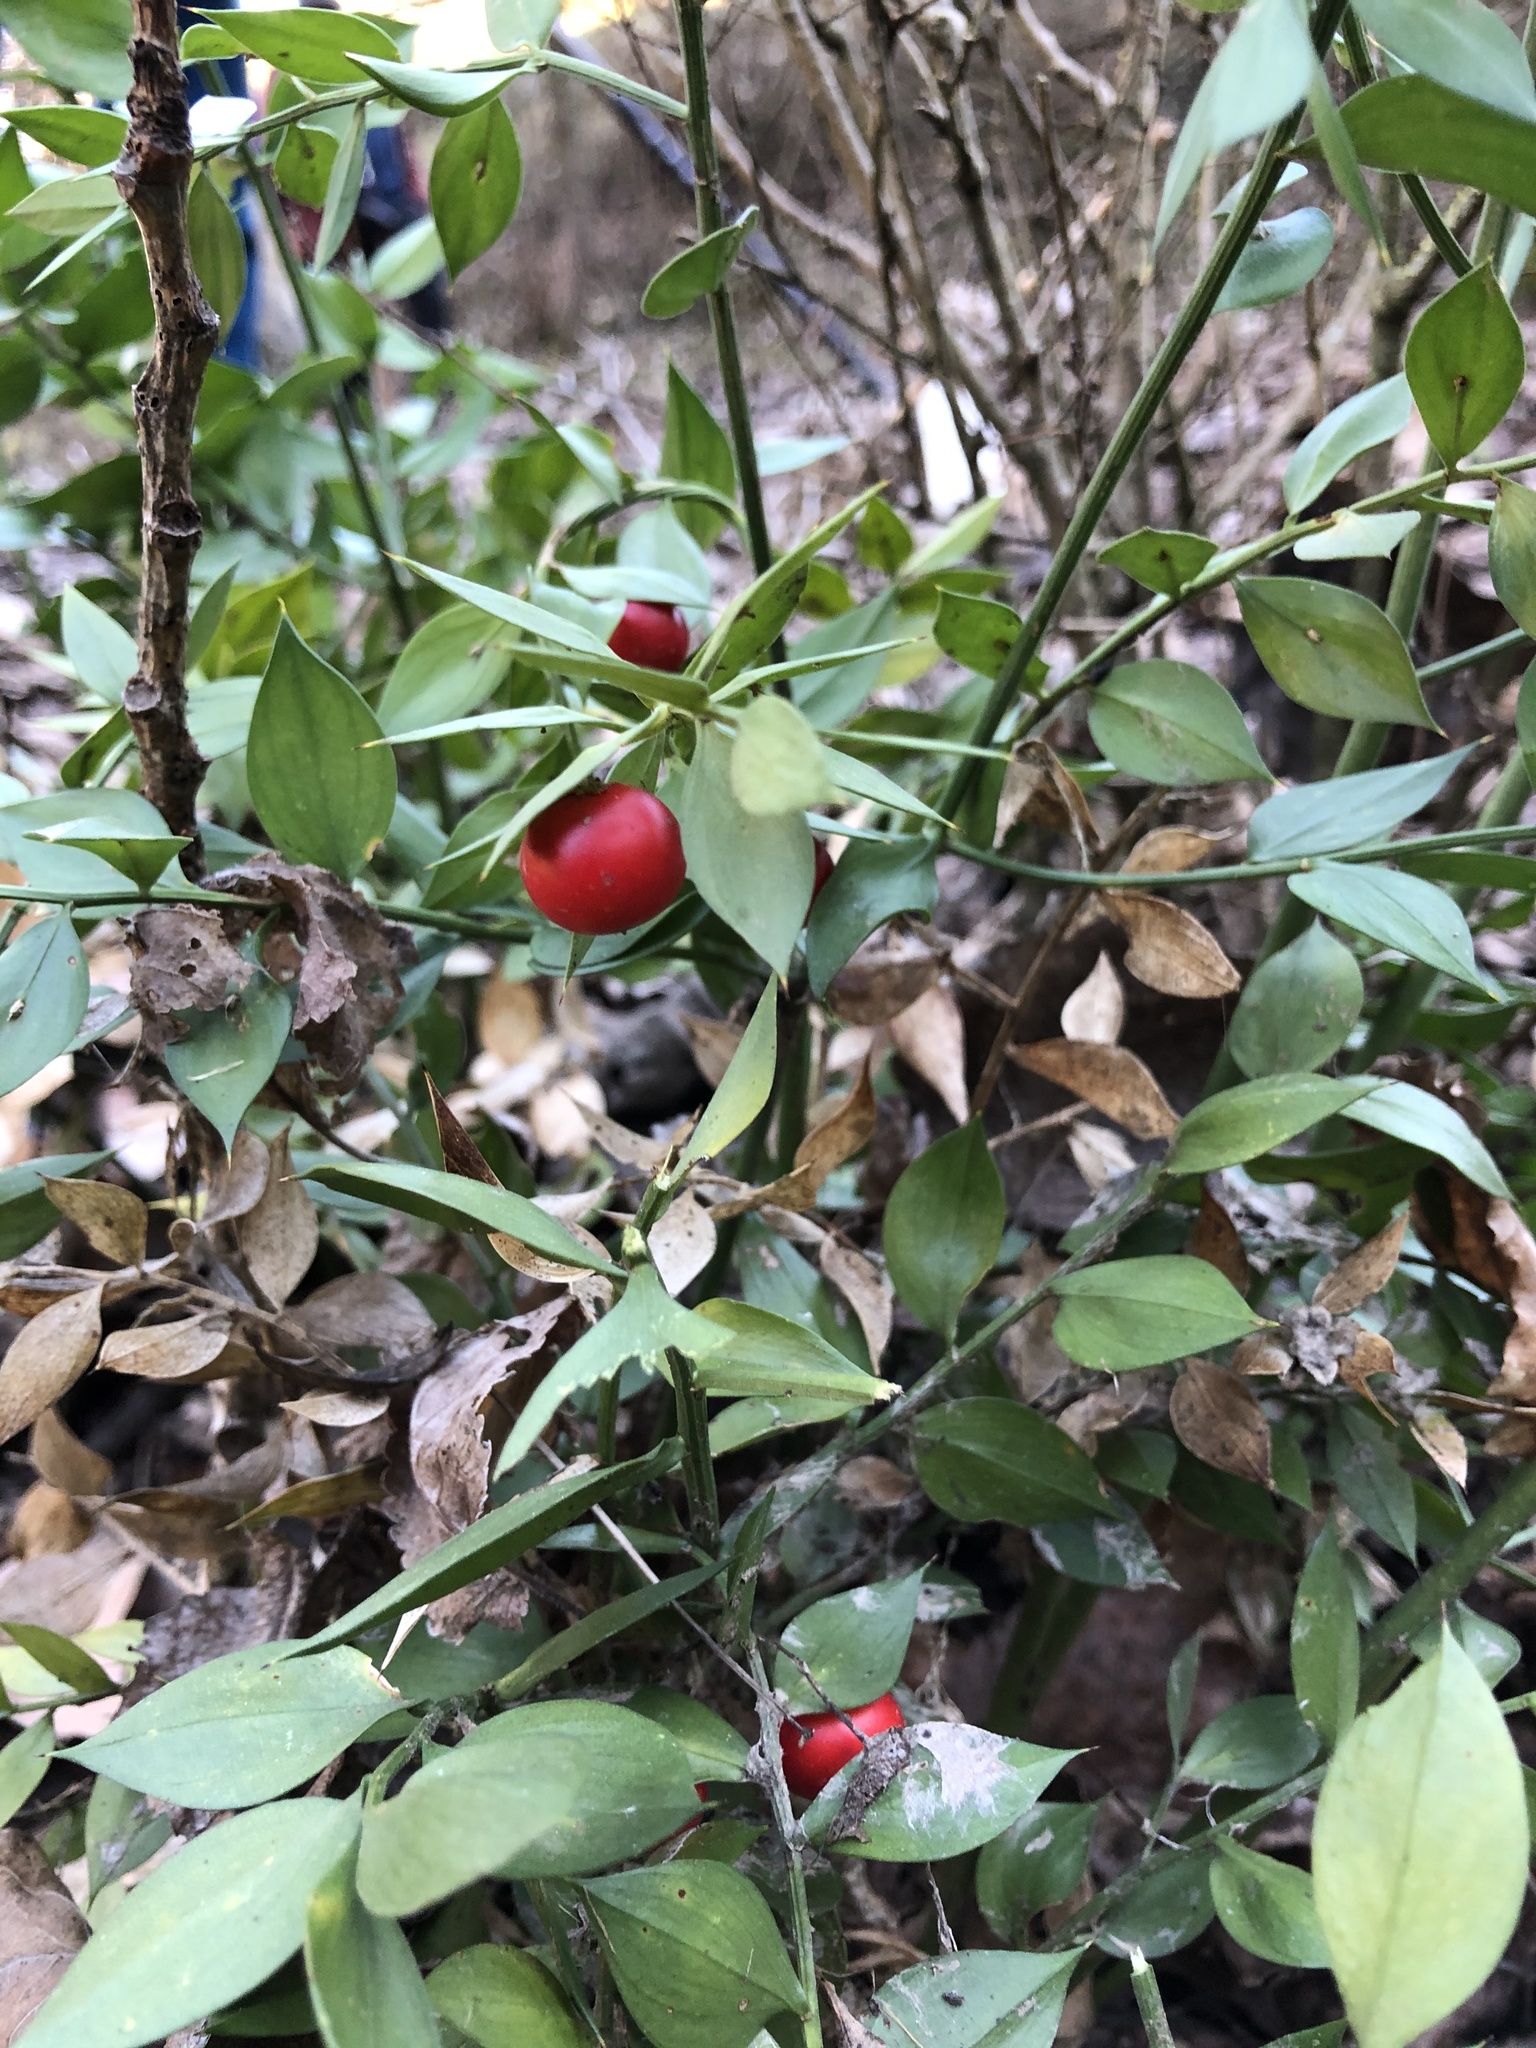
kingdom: Plantae
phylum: Tracheophyta
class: Liliopsida
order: Asparagales
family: Asparagaceae
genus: Ruscus
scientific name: Ruscus aculeatus
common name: Butcher's-broom
